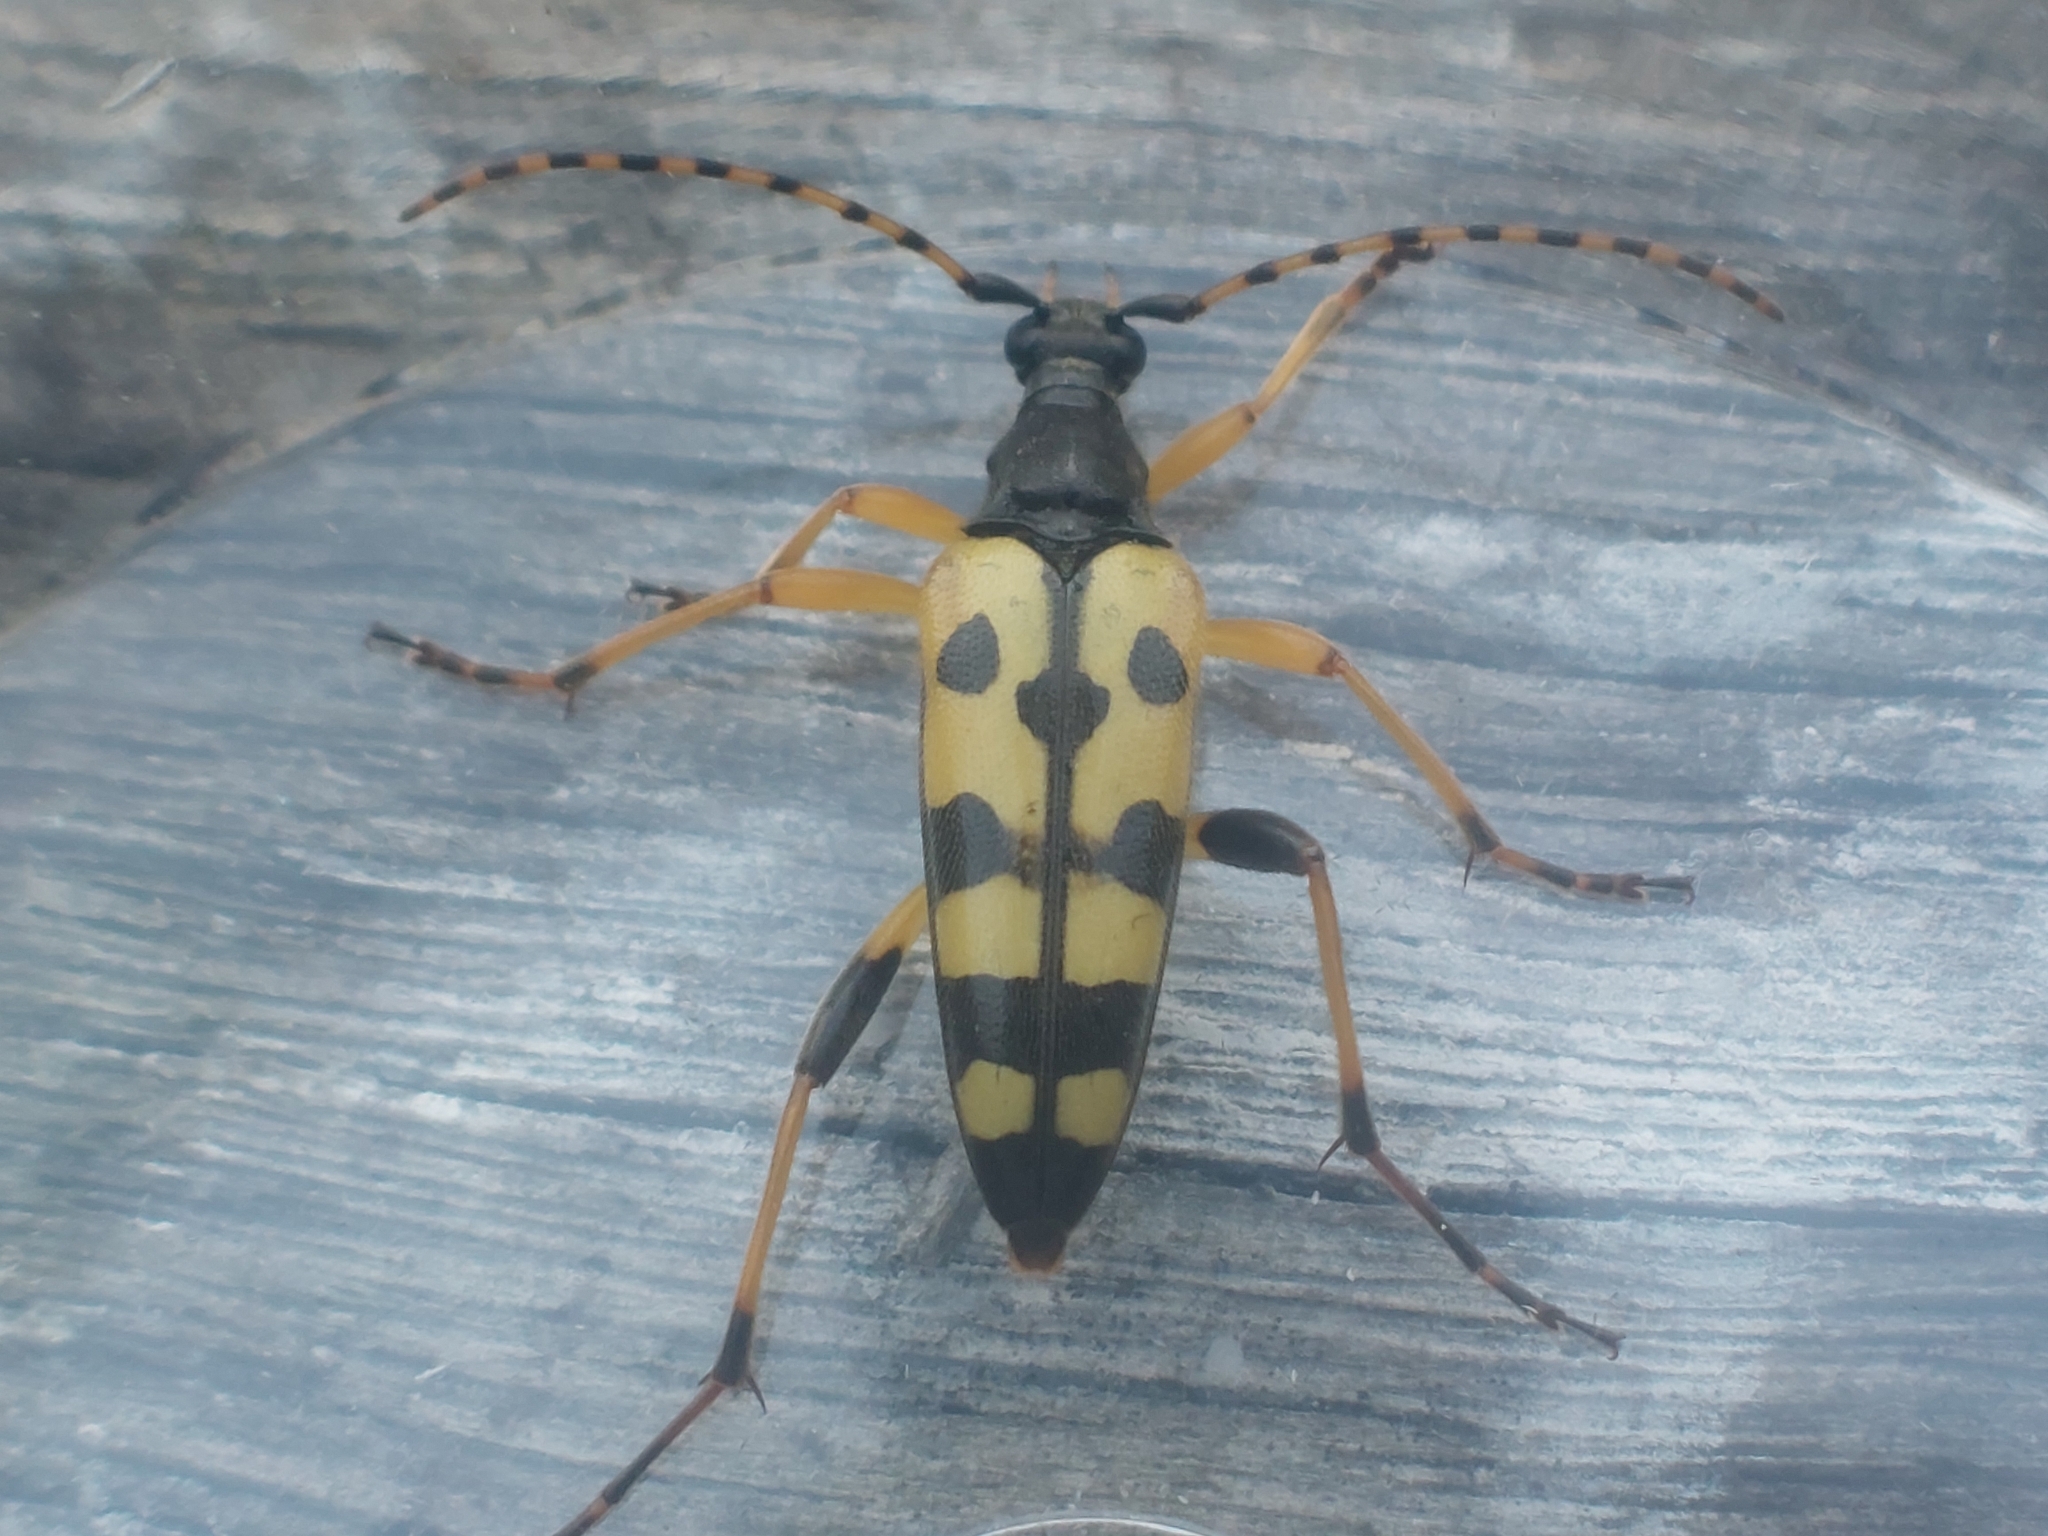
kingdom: Animalia
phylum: Arthropoda
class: Insecta
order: Coleoptera
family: Cerambycidae
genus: Rutpela
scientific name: Rutpela maculata
